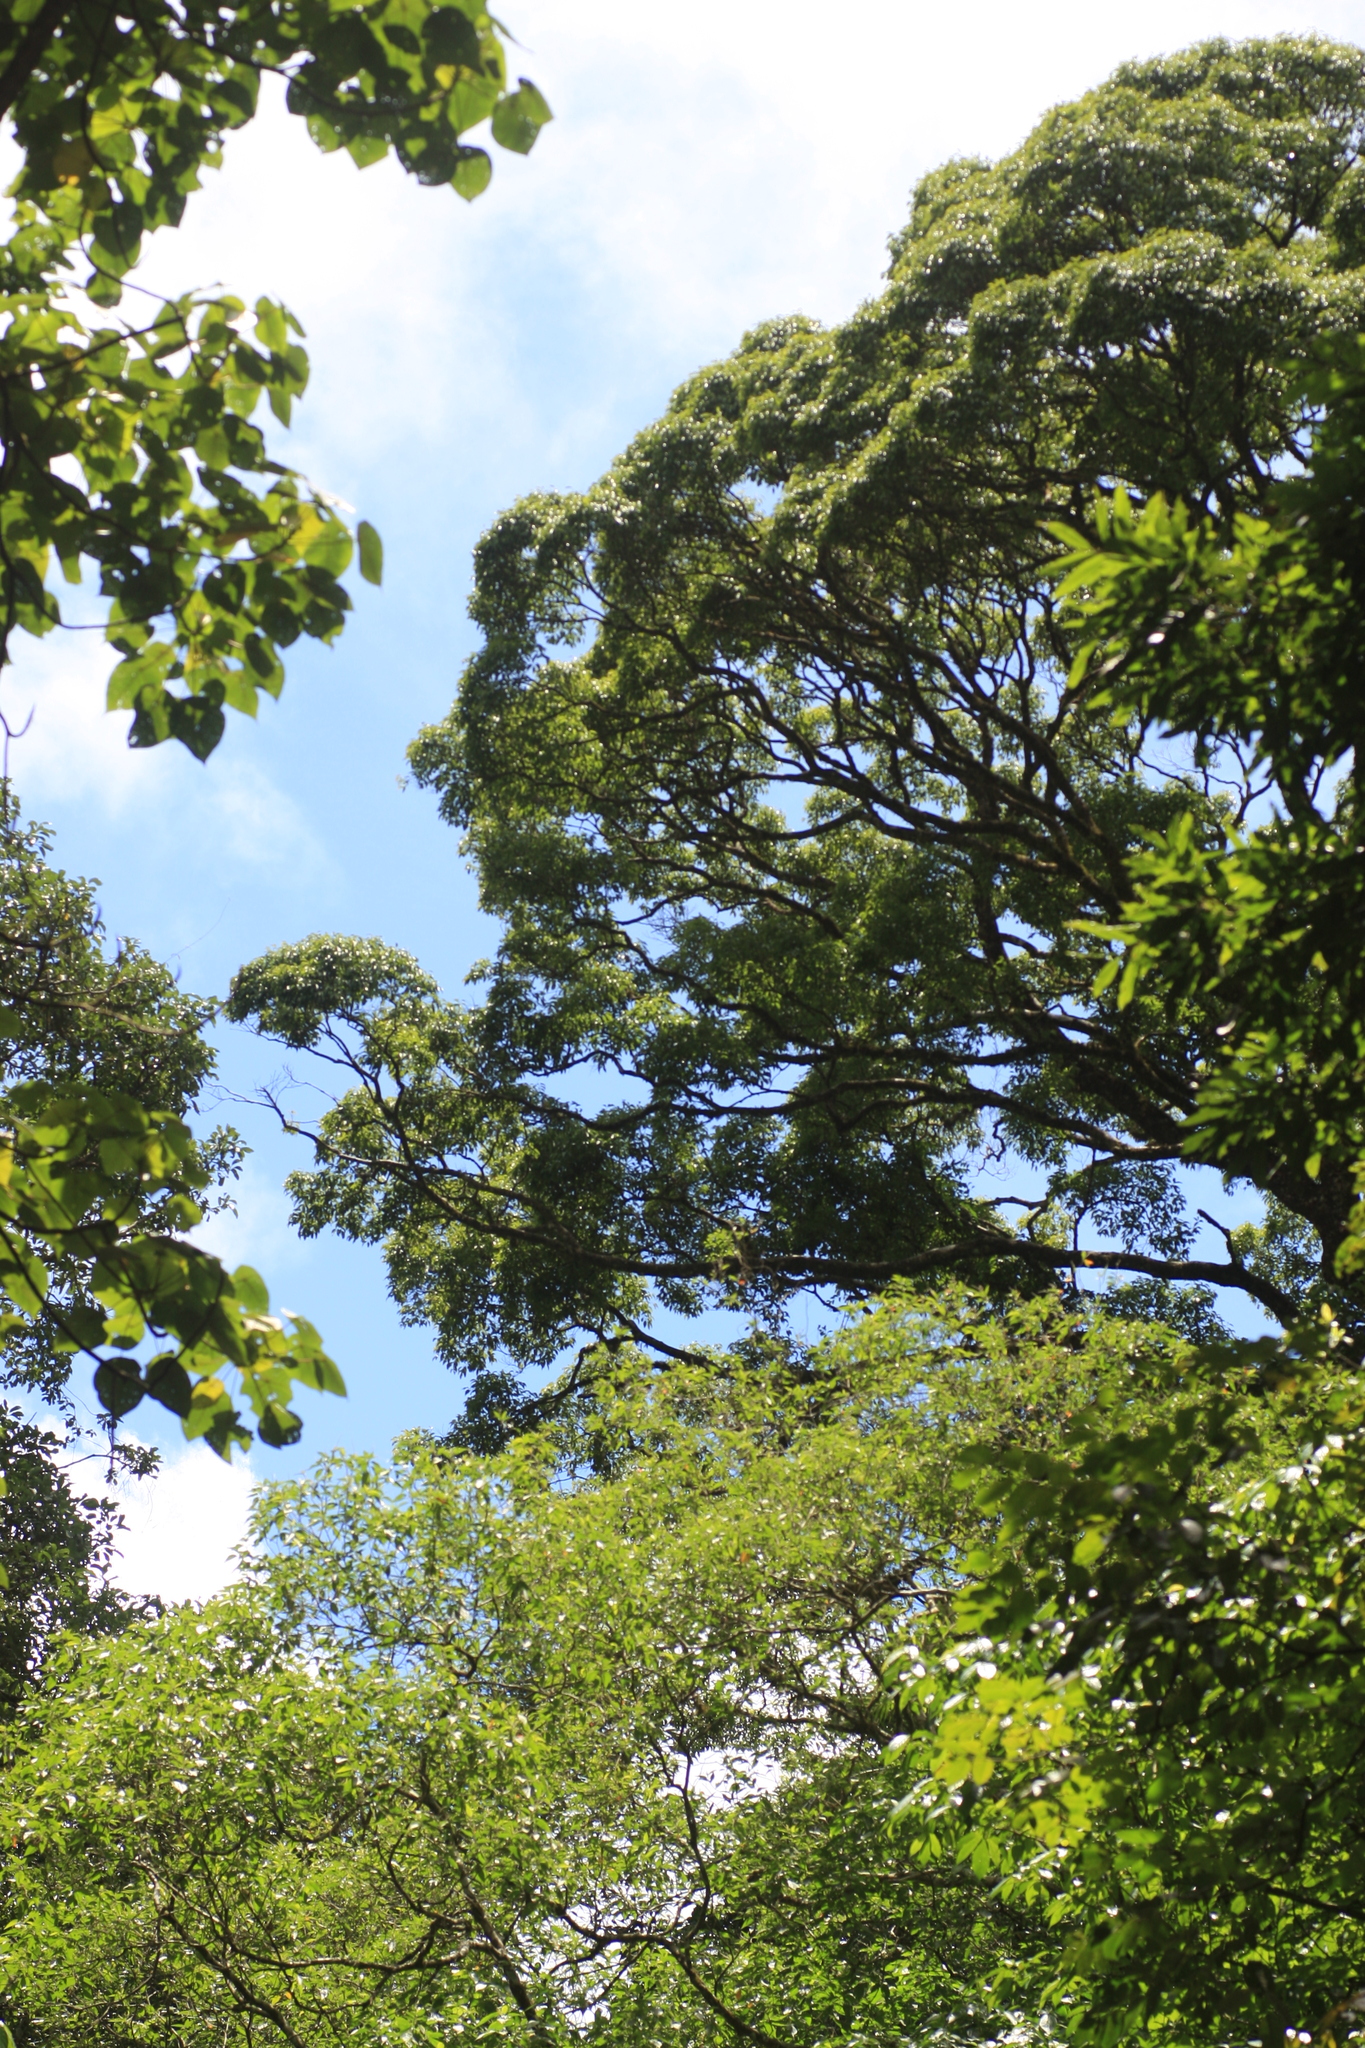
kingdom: Plantae
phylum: Tracheophyta
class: Magnoliopsida
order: Myrtales
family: Myrtaceae
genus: Syzygium
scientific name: Syzygium densiflorum
